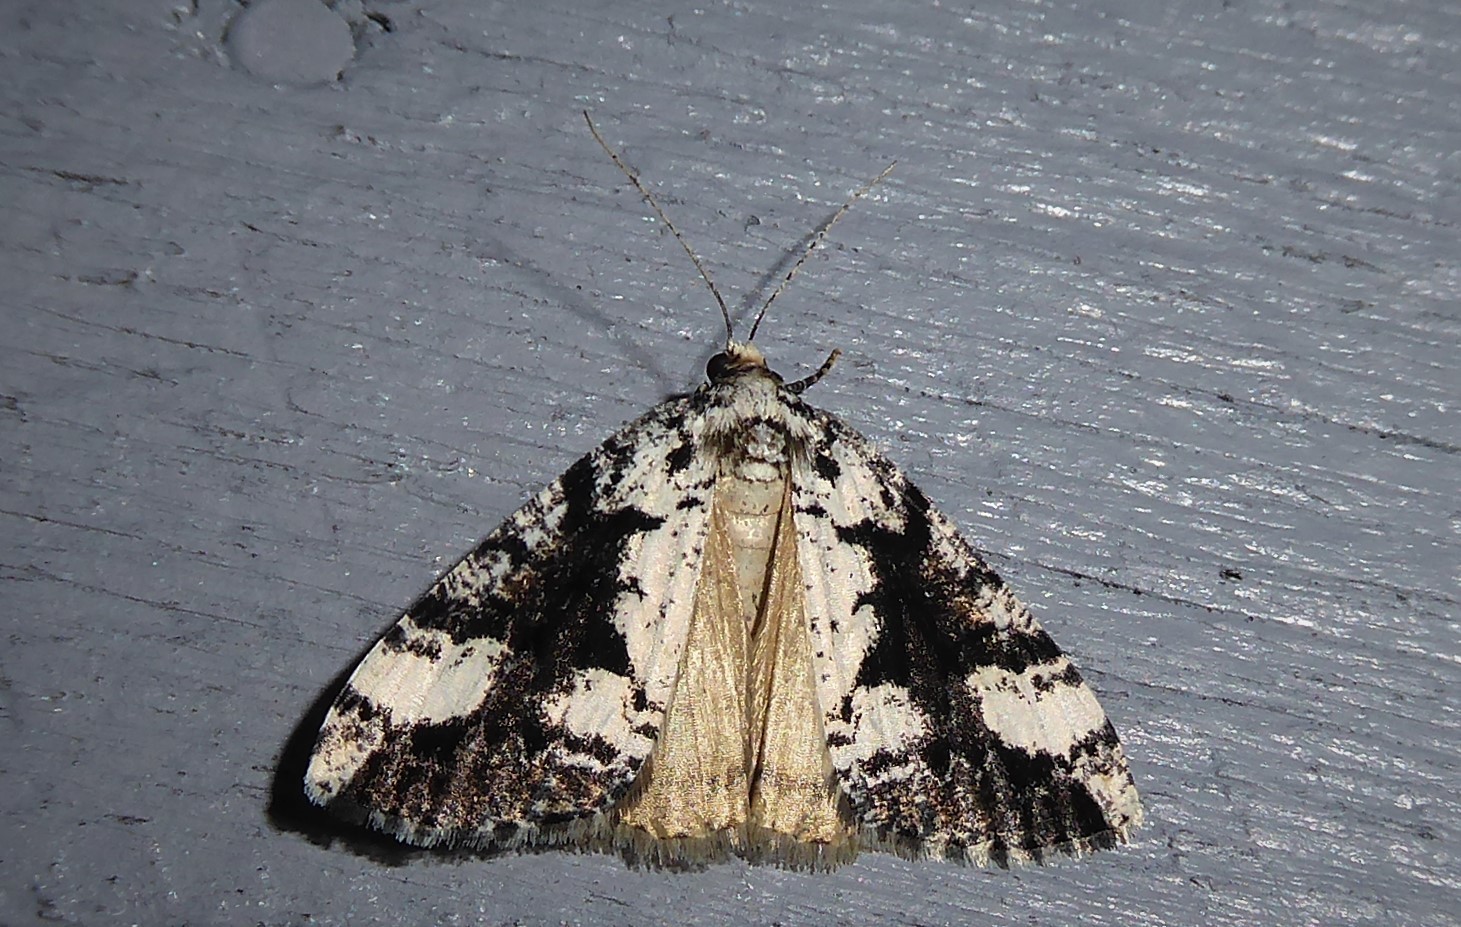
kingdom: Animalia
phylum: Arthropoda
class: Insecta
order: Lepidoptera
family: Geometridae
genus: Pseudocoremia
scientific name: Pseudocoremia leucelaea
